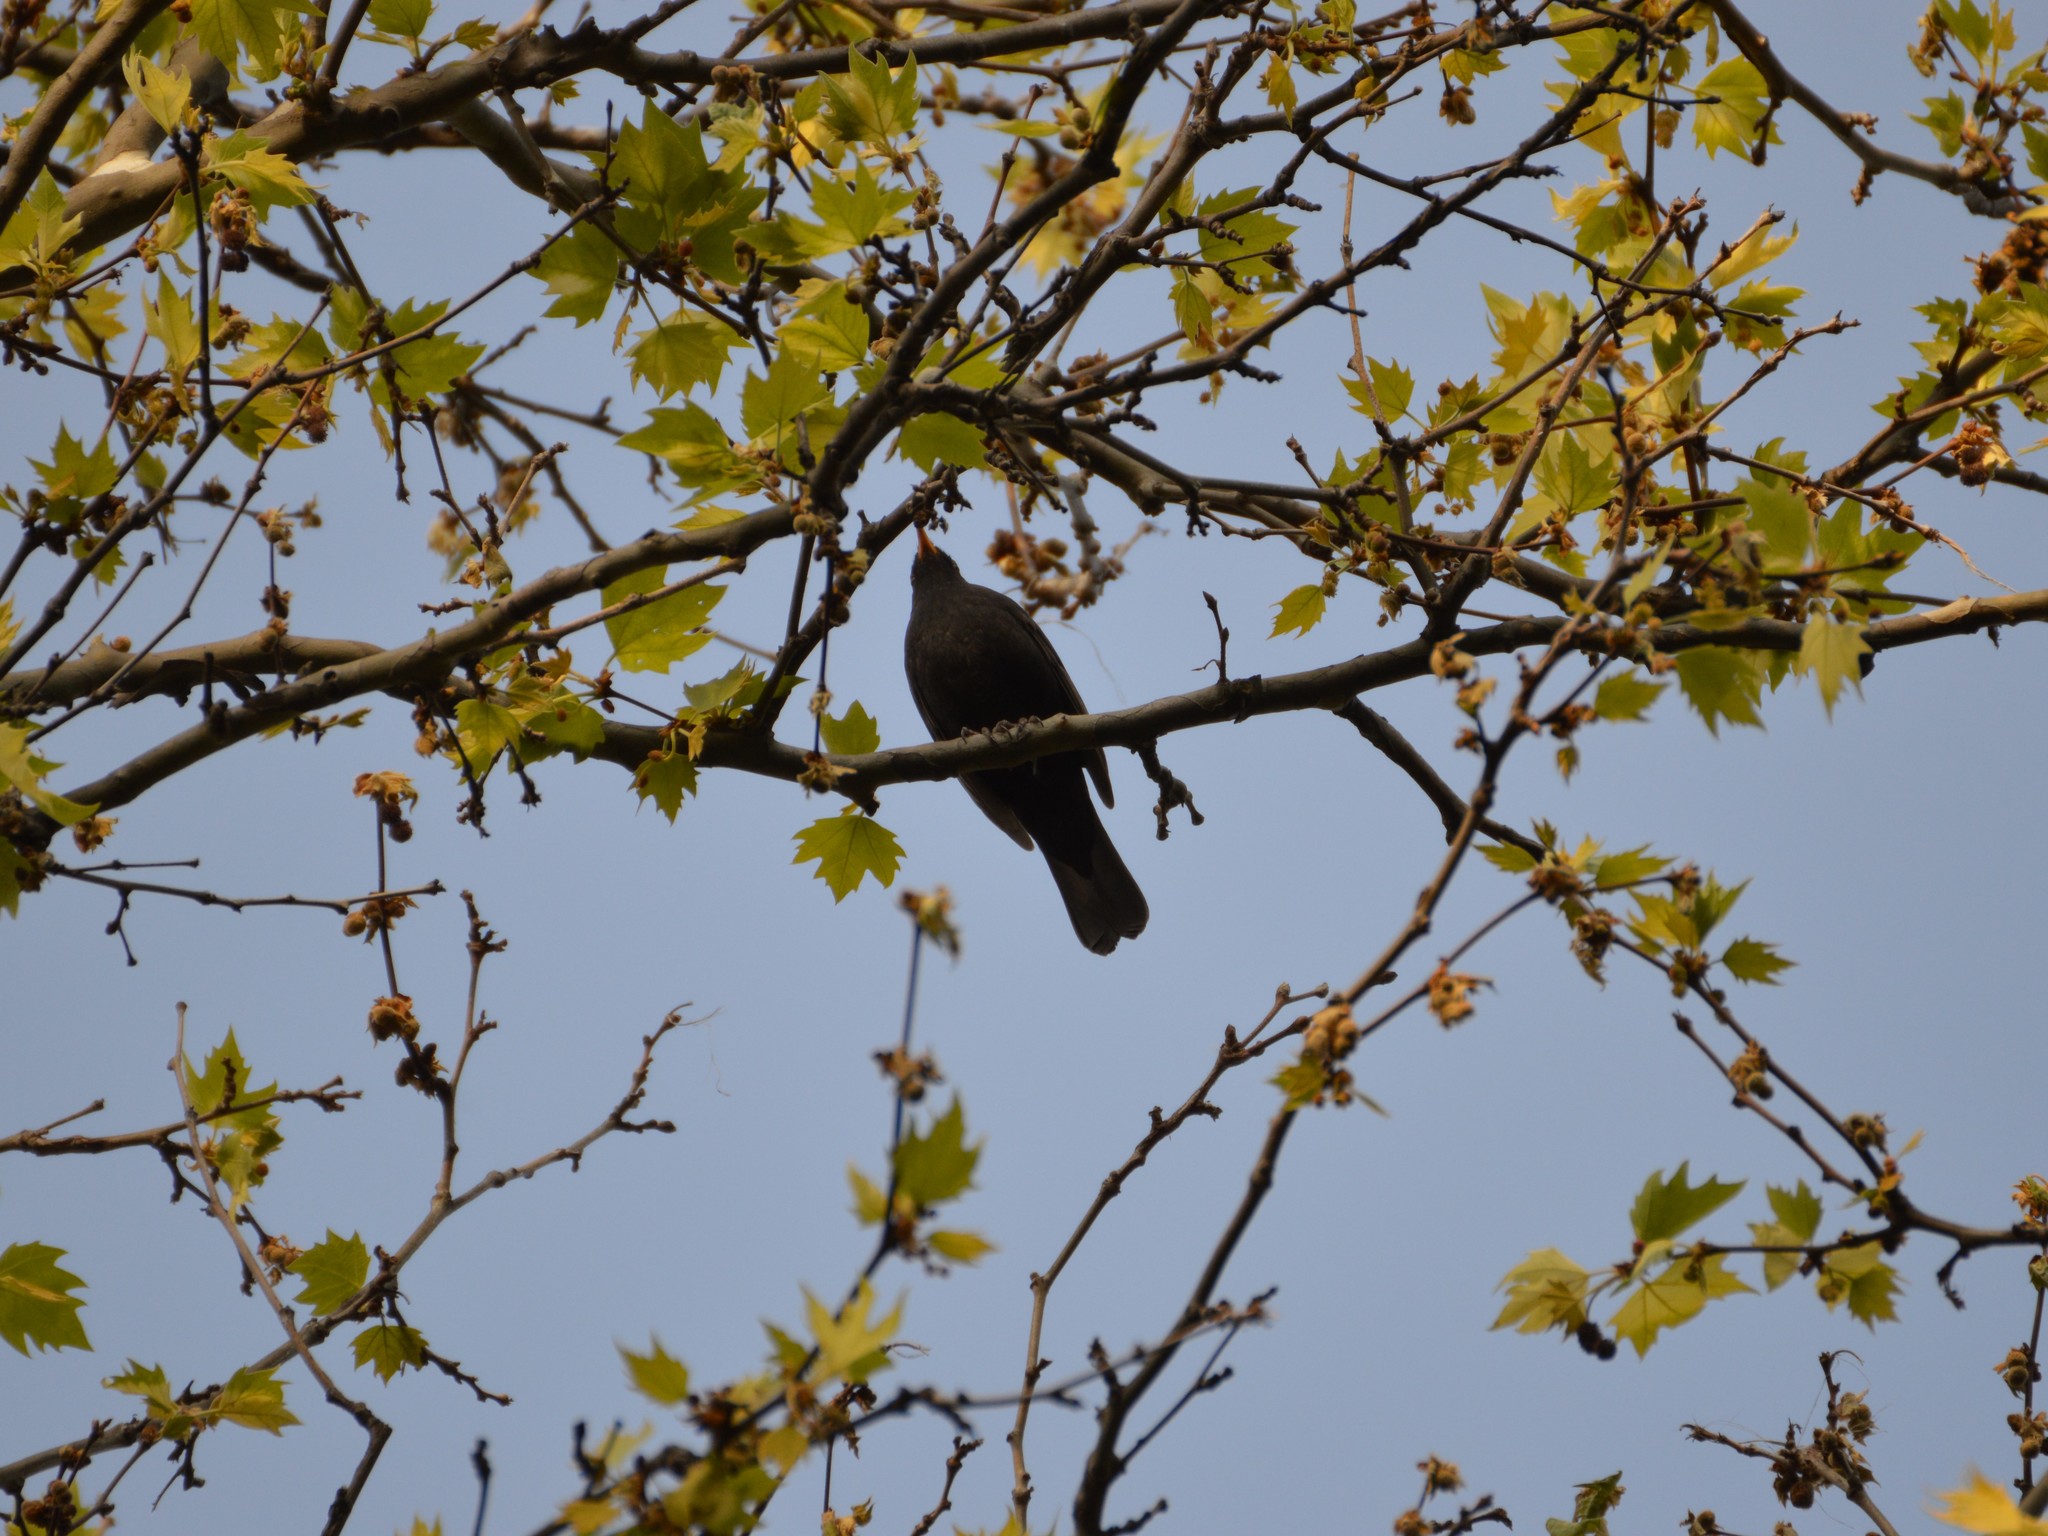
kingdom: Animalia
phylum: Chordata
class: Aves
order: Passeriformes
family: Turdidae
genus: Turdus
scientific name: Turdus merula
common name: Common blackbird
